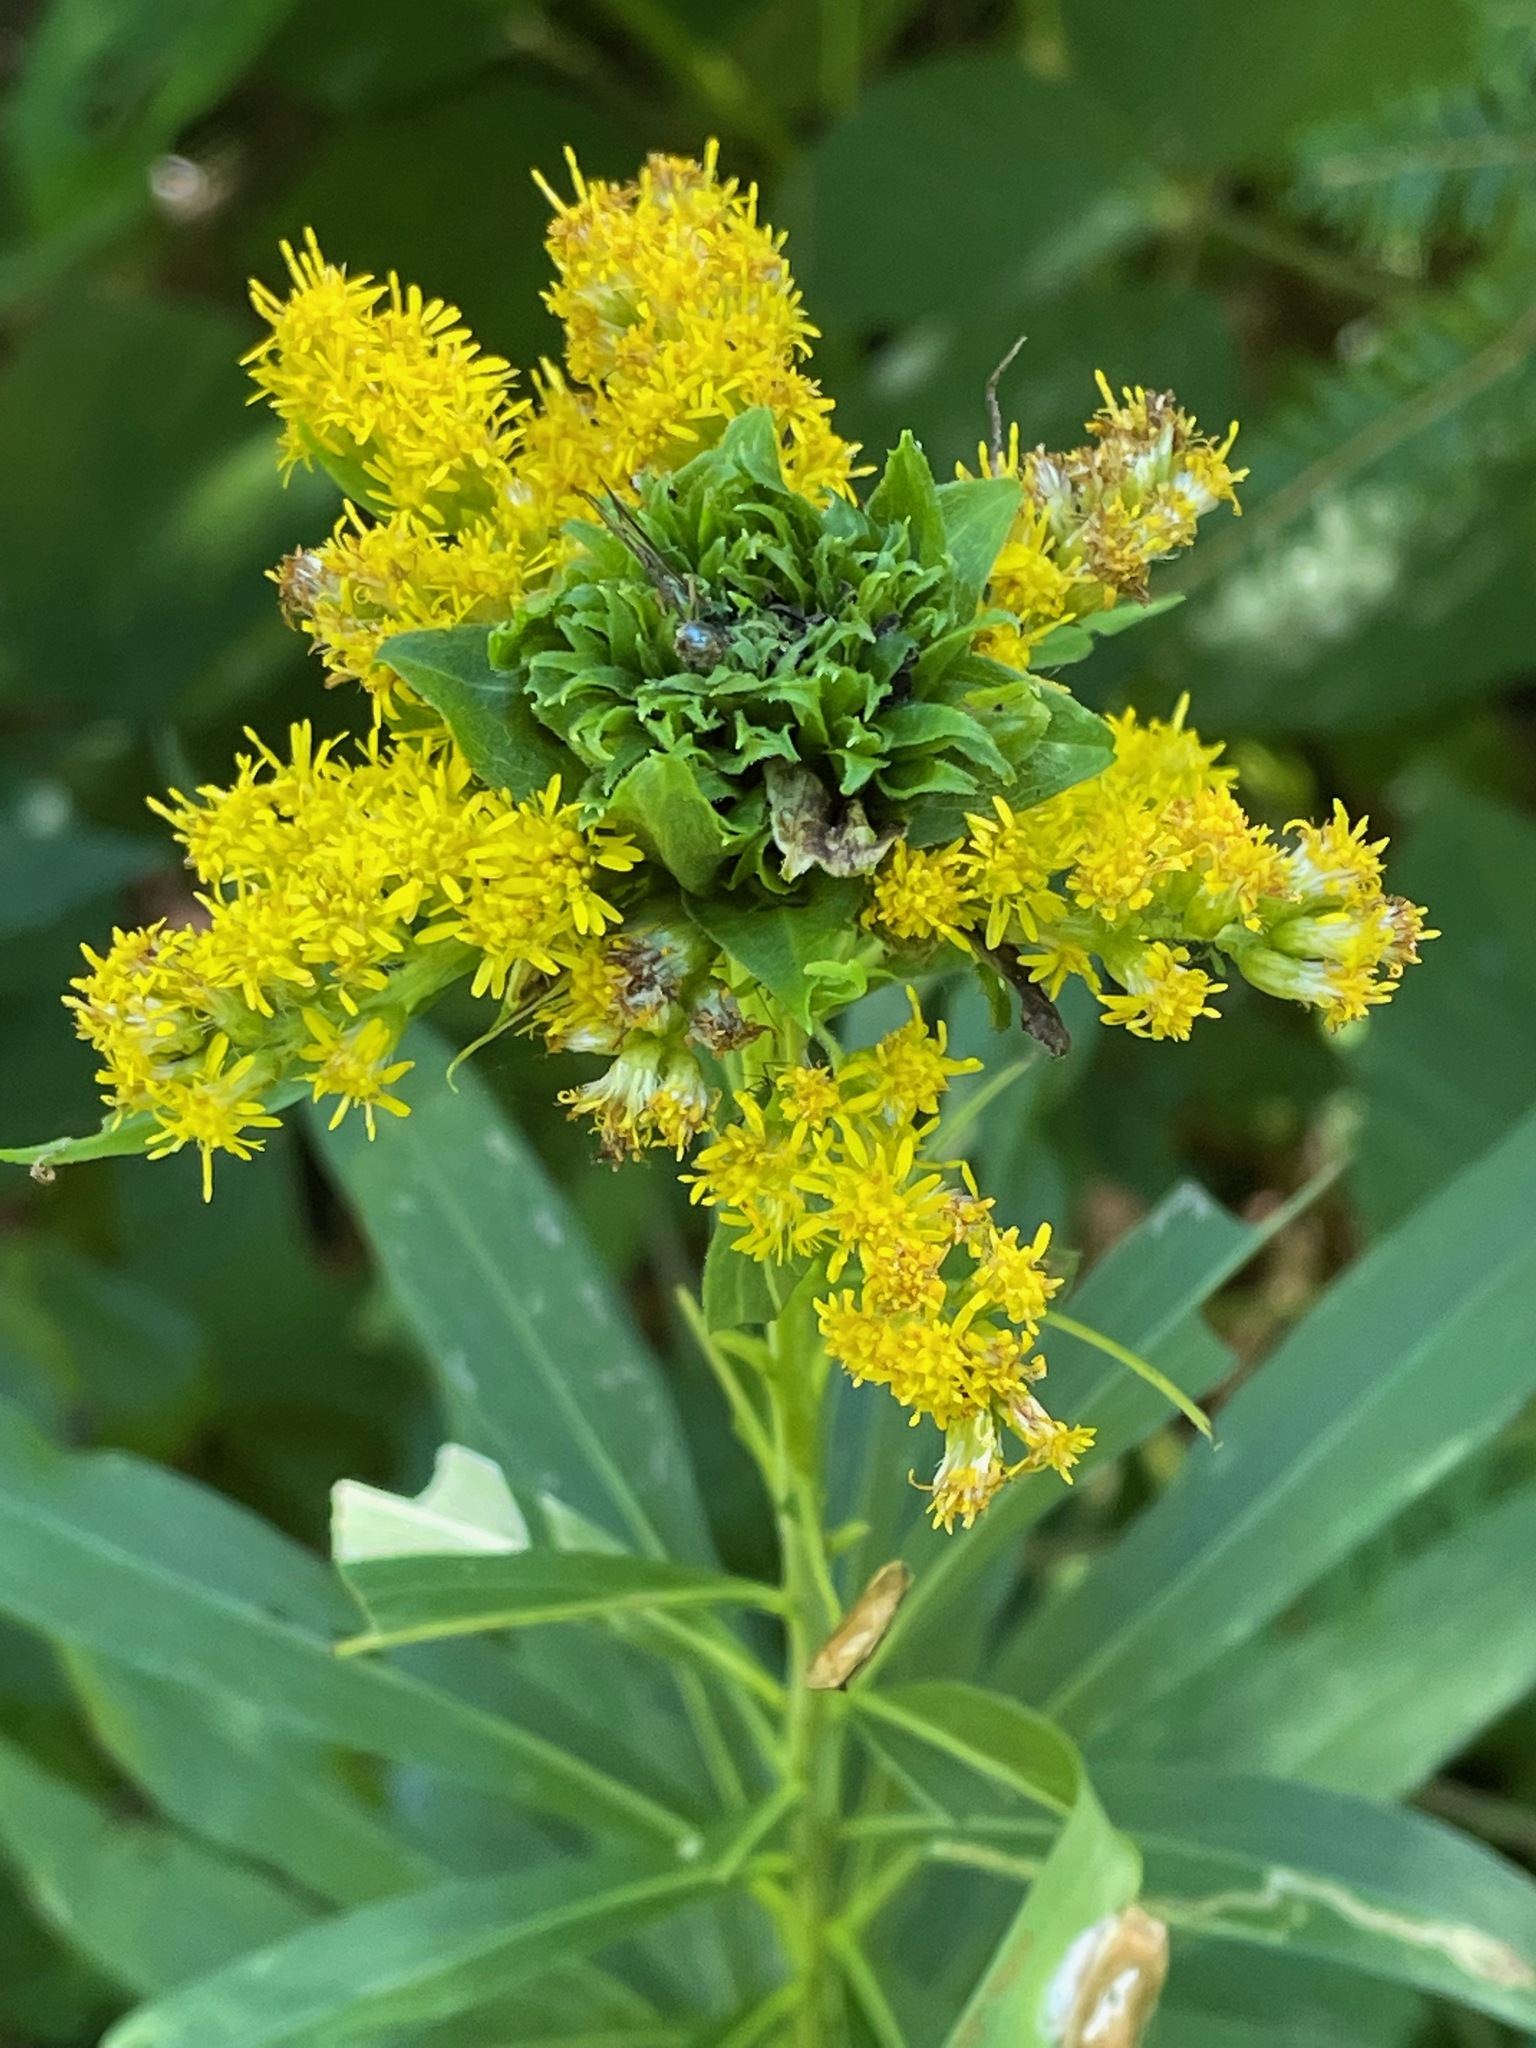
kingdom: Animalia
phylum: Arthropoda
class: Insecta
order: Diptera
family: Cecidomyiidae
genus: Rhopalomyia
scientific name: Rhopalomyia capitata
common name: Giant goldenrod bunch gall midge
